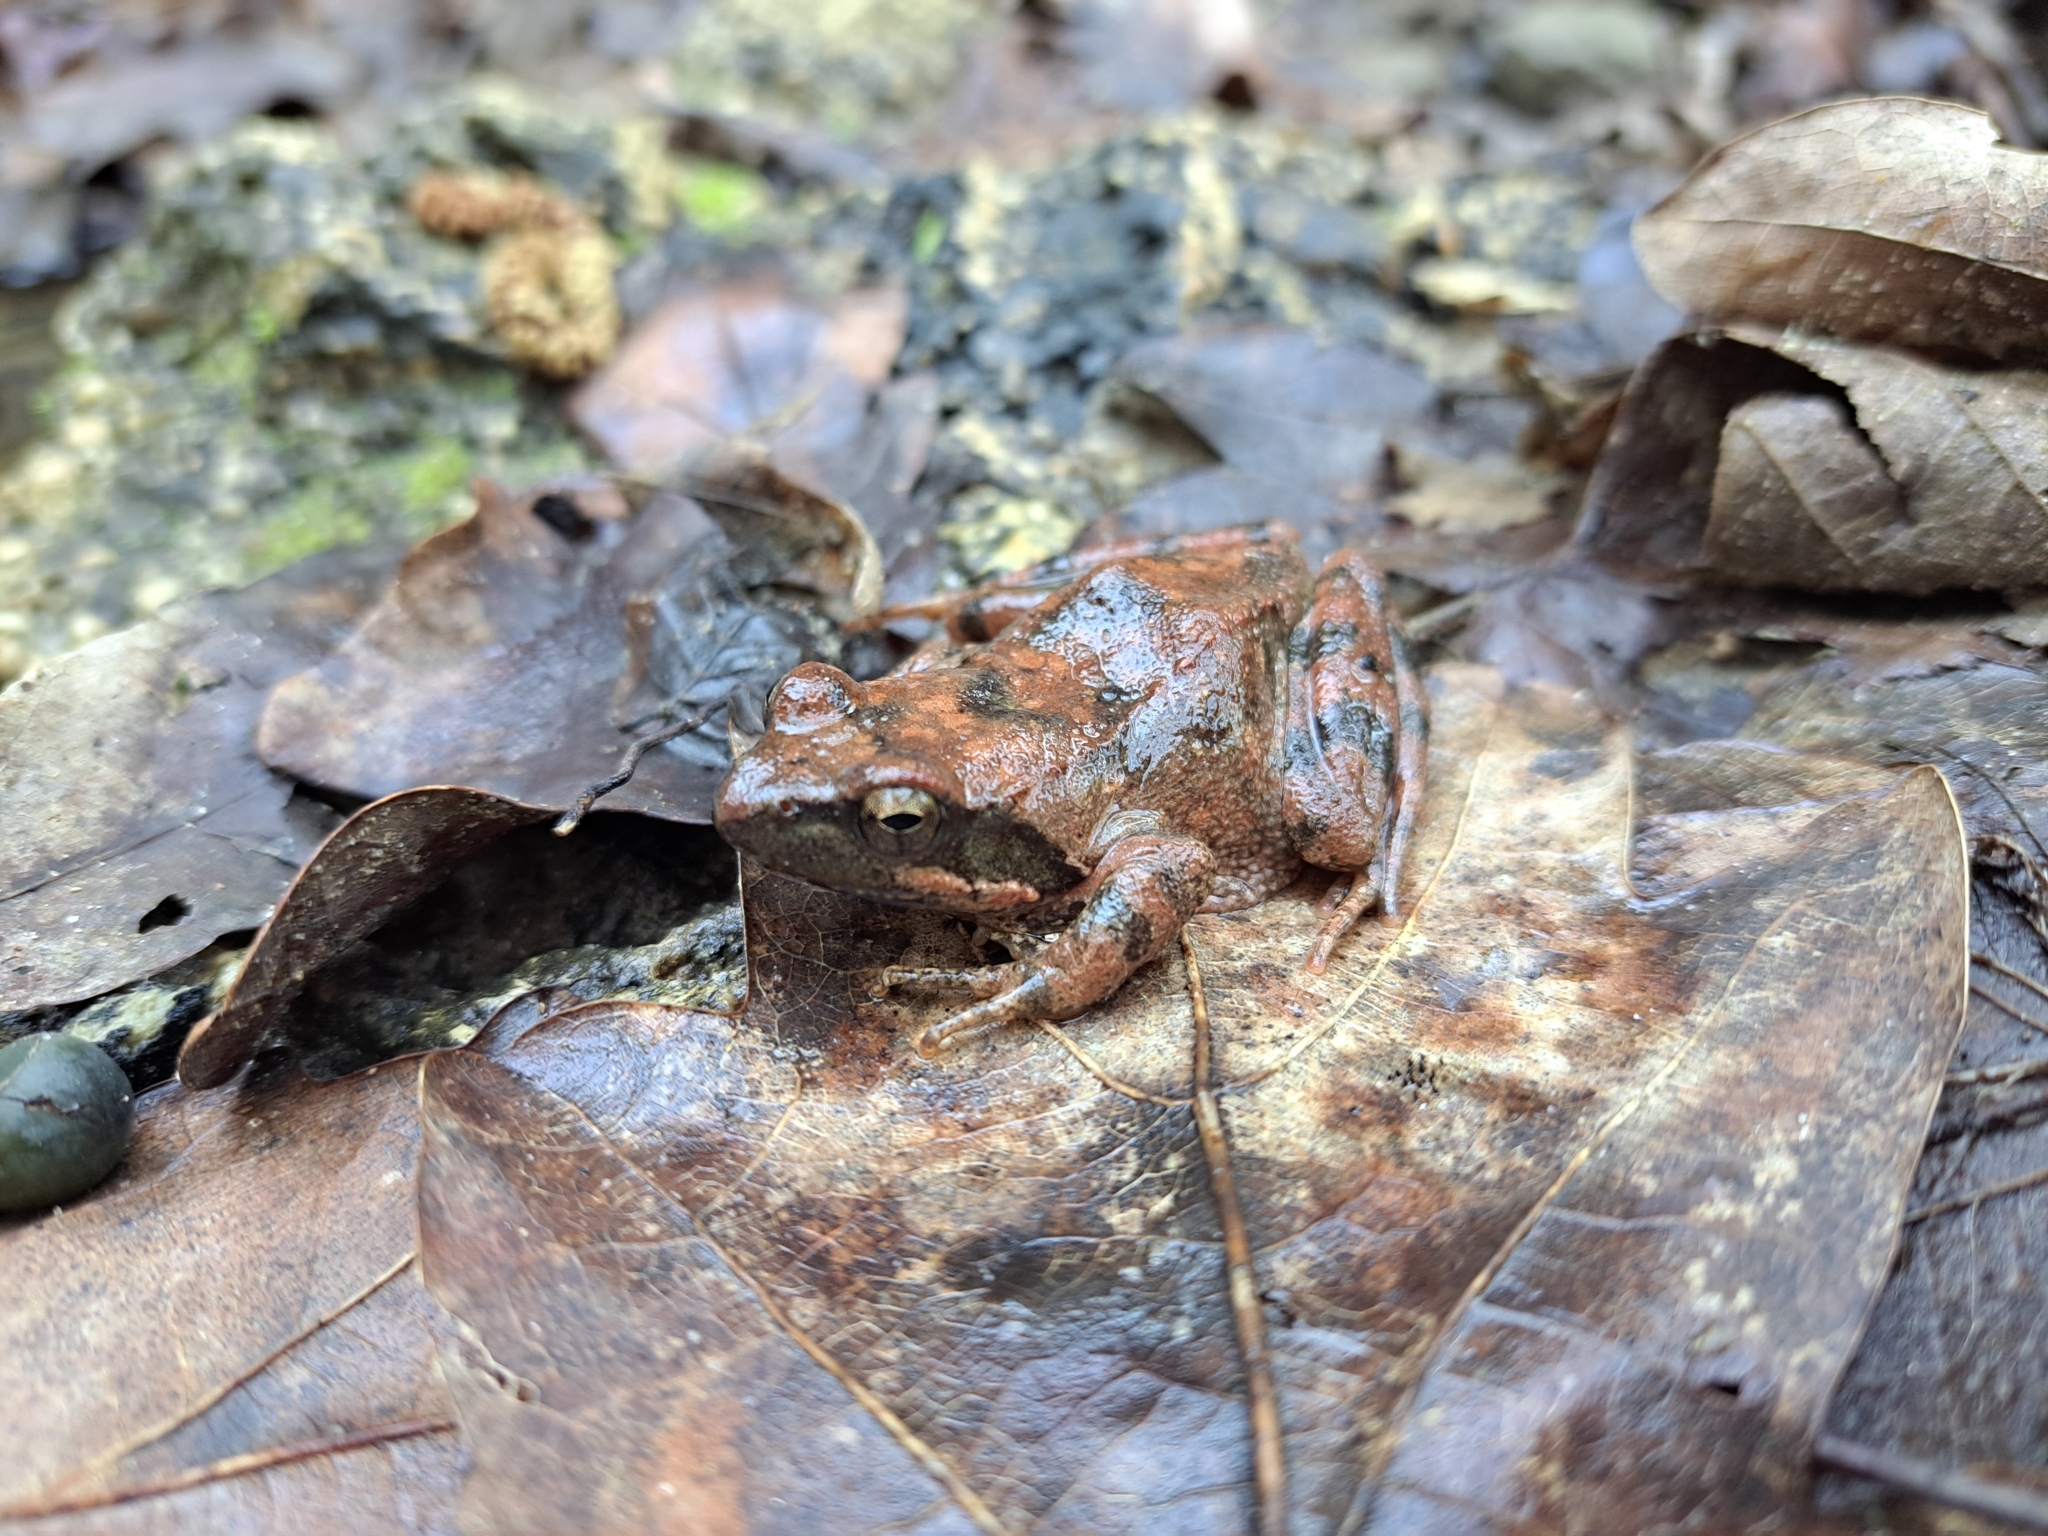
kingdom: Animalia
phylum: Chordata
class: Amphibia
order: Anura
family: Ranidae
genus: Rana
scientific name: Rana italica
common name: Italian stream frog
